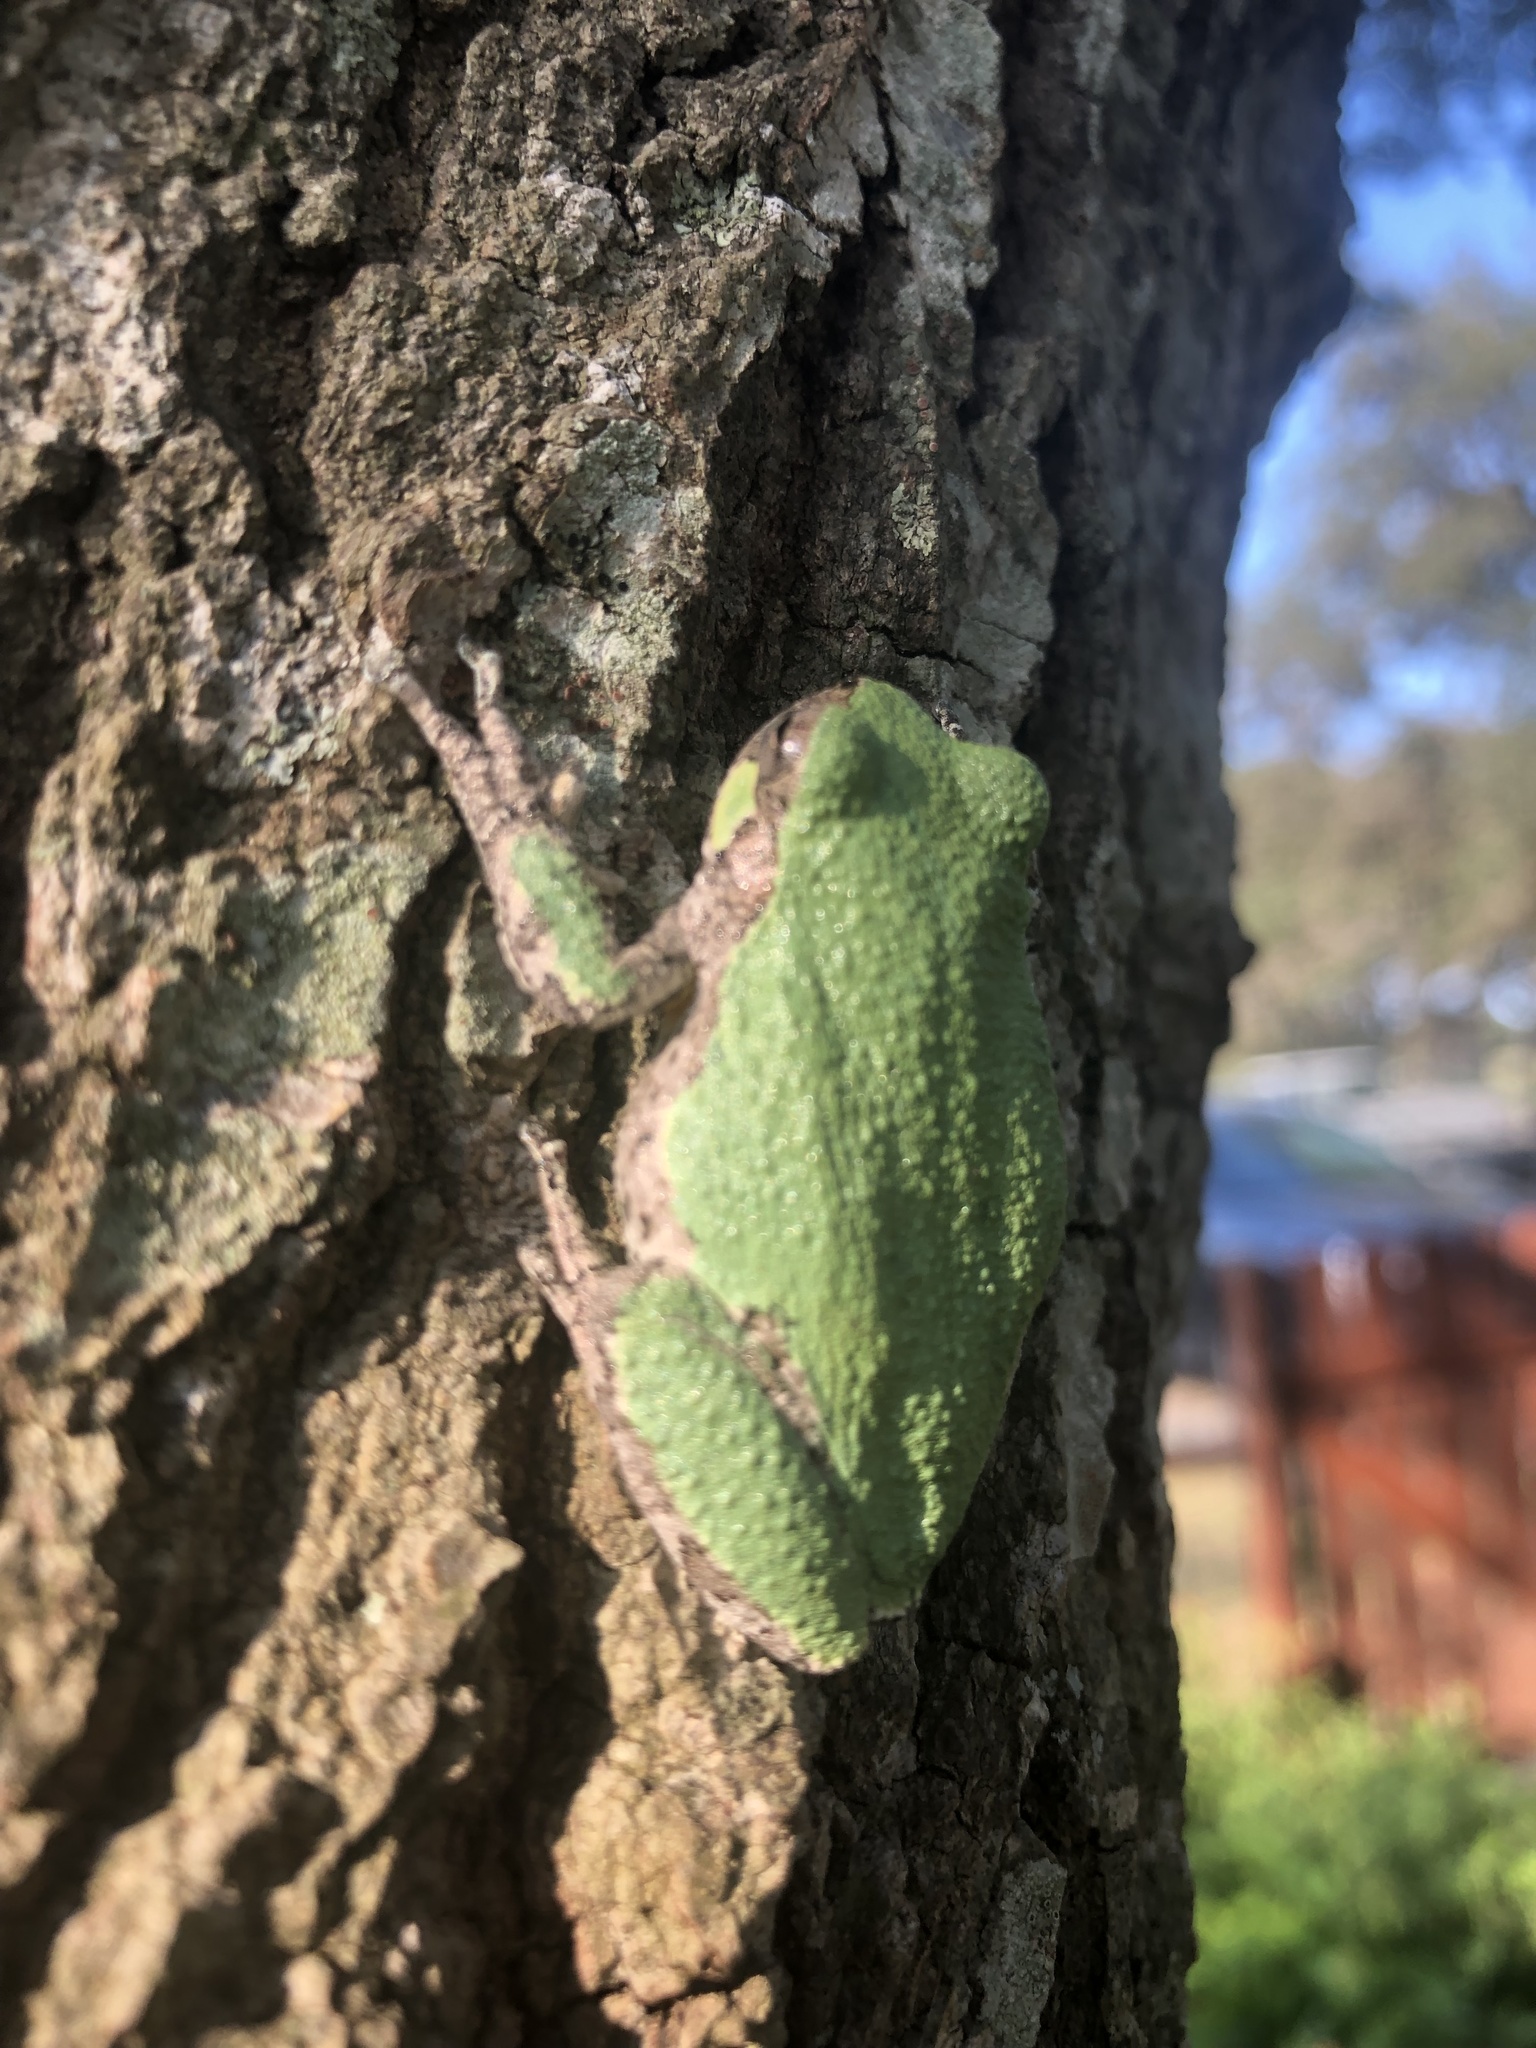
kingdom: Animalia
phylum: Chordata
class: Amphibia
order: Anura
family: Hylidae
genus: Dryophytes
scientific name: Dryophytes chrysoscelis
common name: Cope's gray treefrog
